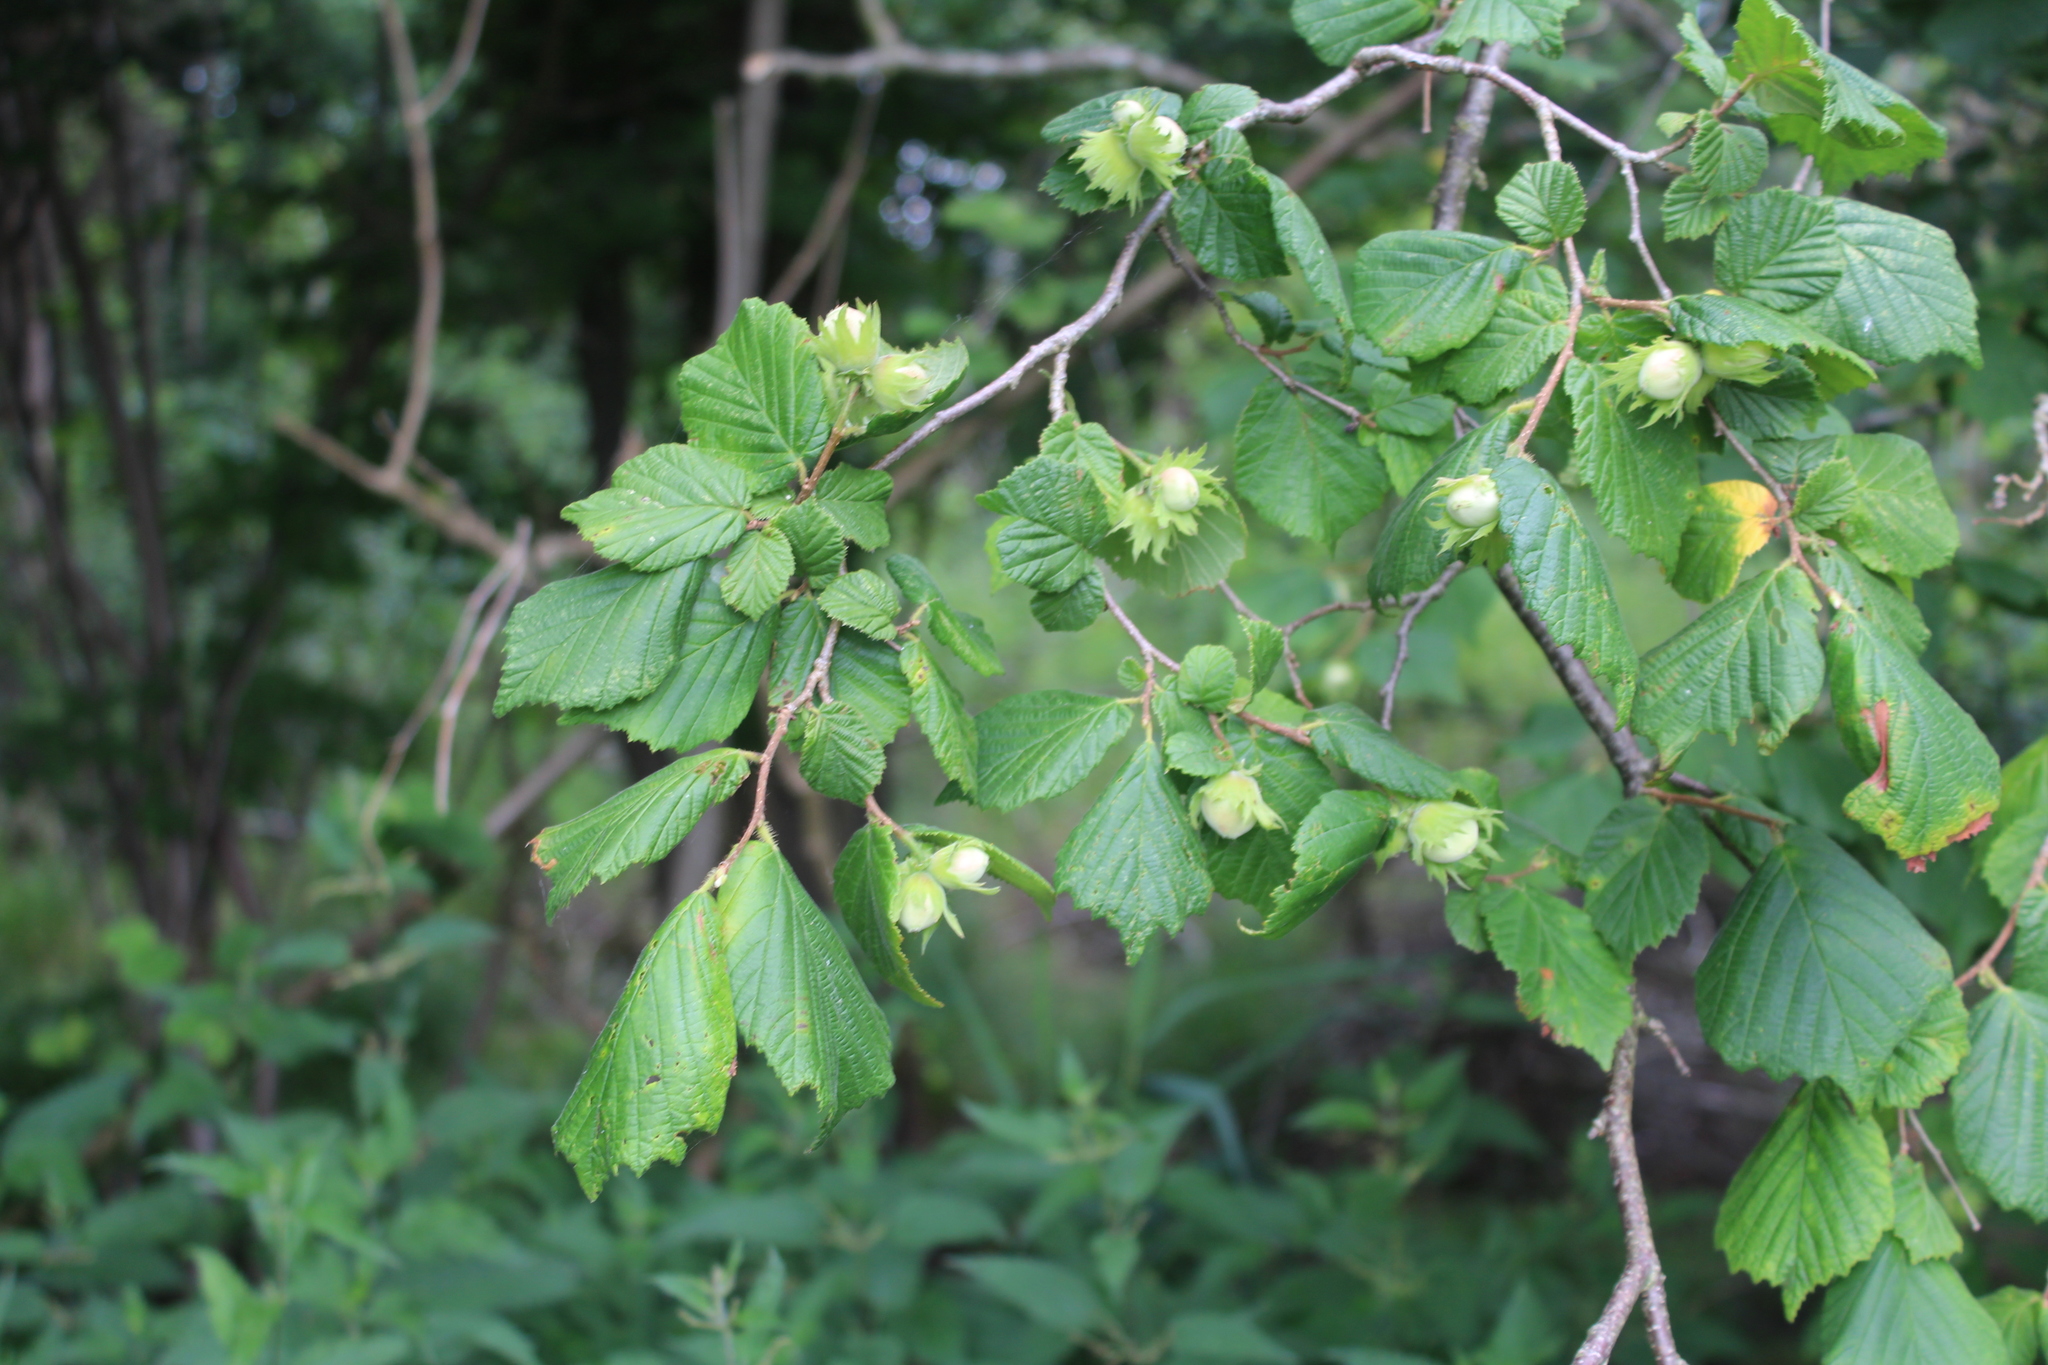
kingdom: Plantae
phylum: Tracheophyta
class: Magnoliopsida
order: Fagales
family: Betulaceae
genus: Corylus
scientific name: Corylus avellana
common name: European hazel
